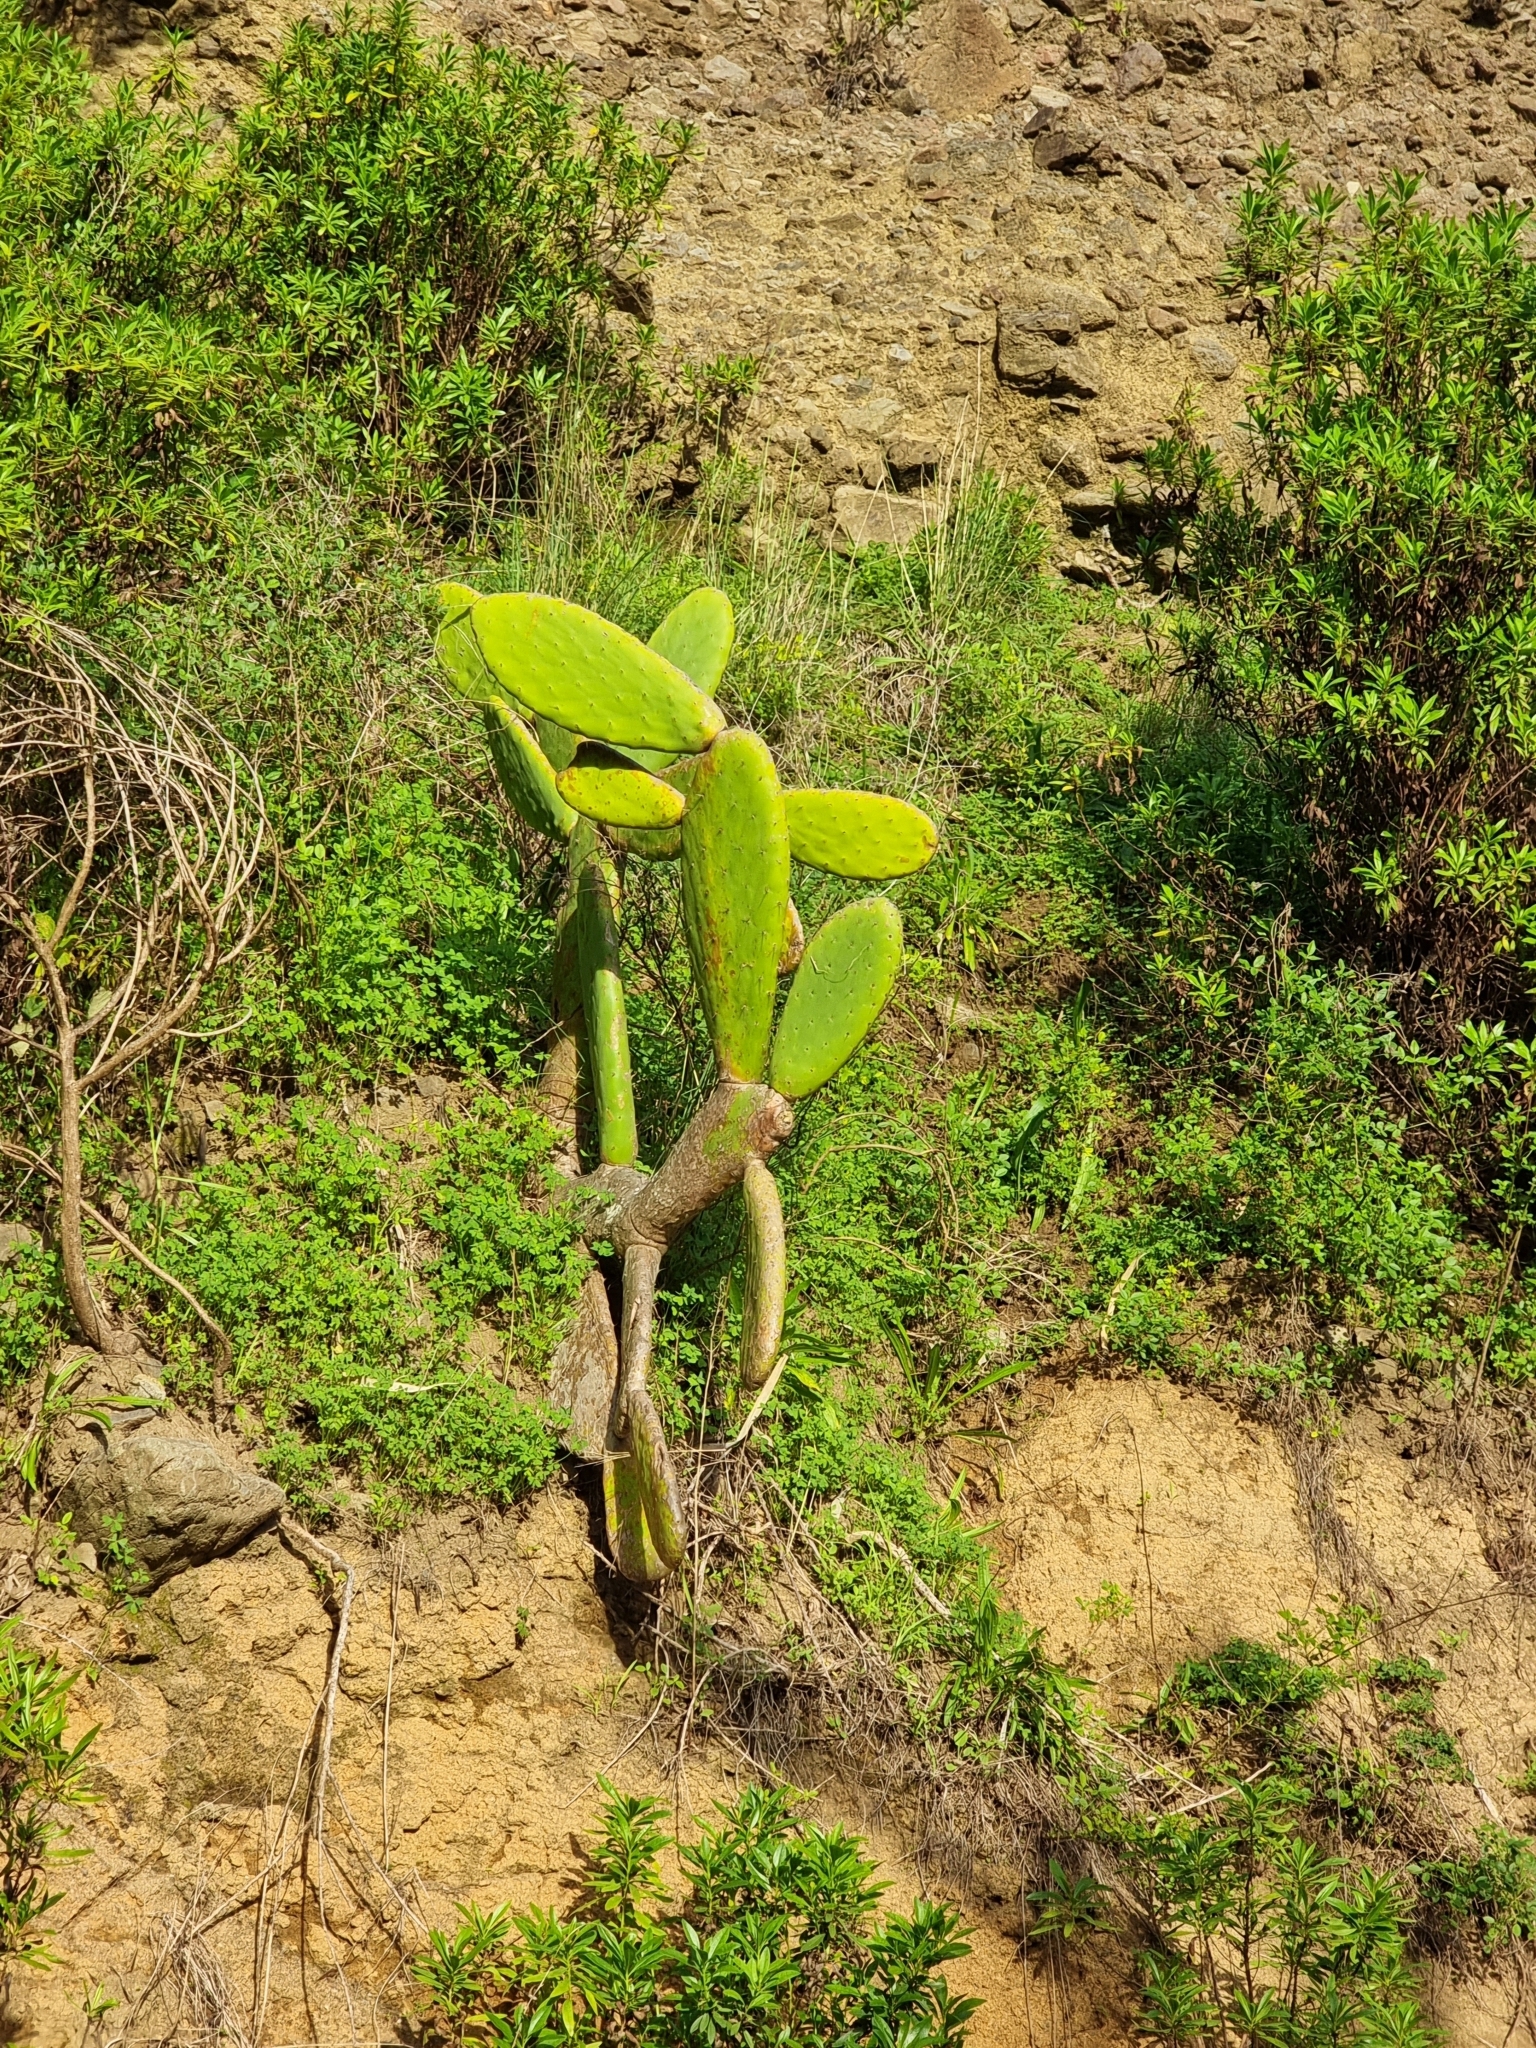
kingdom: Plantae
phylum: Tracheophyta
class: Magnoliopsida
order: Caryophyllales
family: Cactaceae
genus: Opuntia
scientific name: Opuntia ficus-indica
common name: Barbary fig
